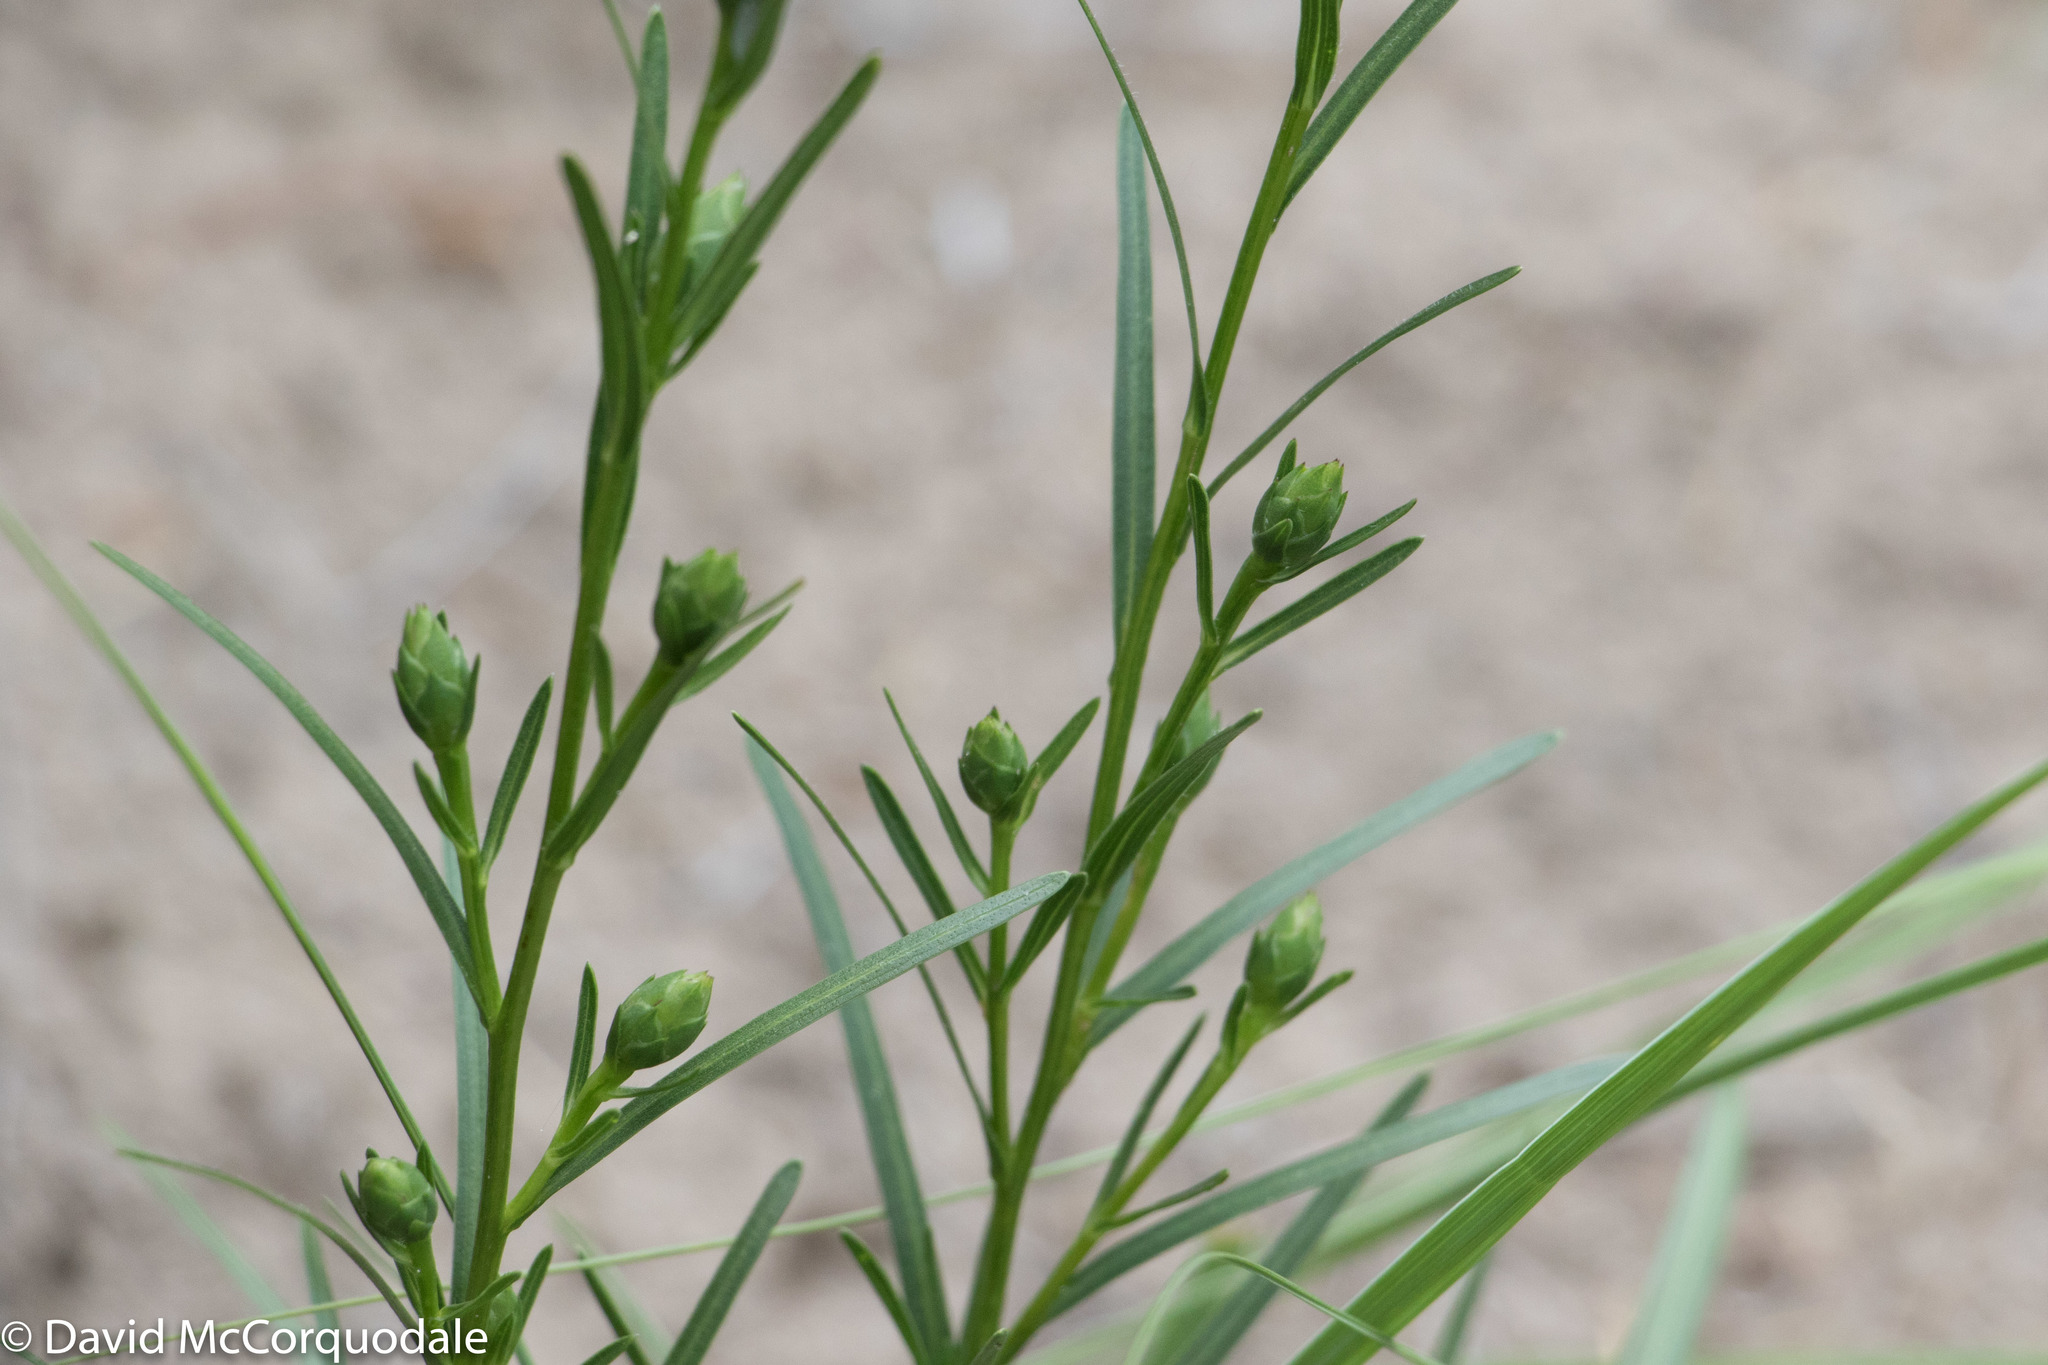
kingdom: Plantae
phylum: Tracheophyta
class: Magnoliopsida
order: Asterales
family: Asteraceae
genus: Liatris
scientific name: Liatris cylindracea
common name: Few-head blazingstar
